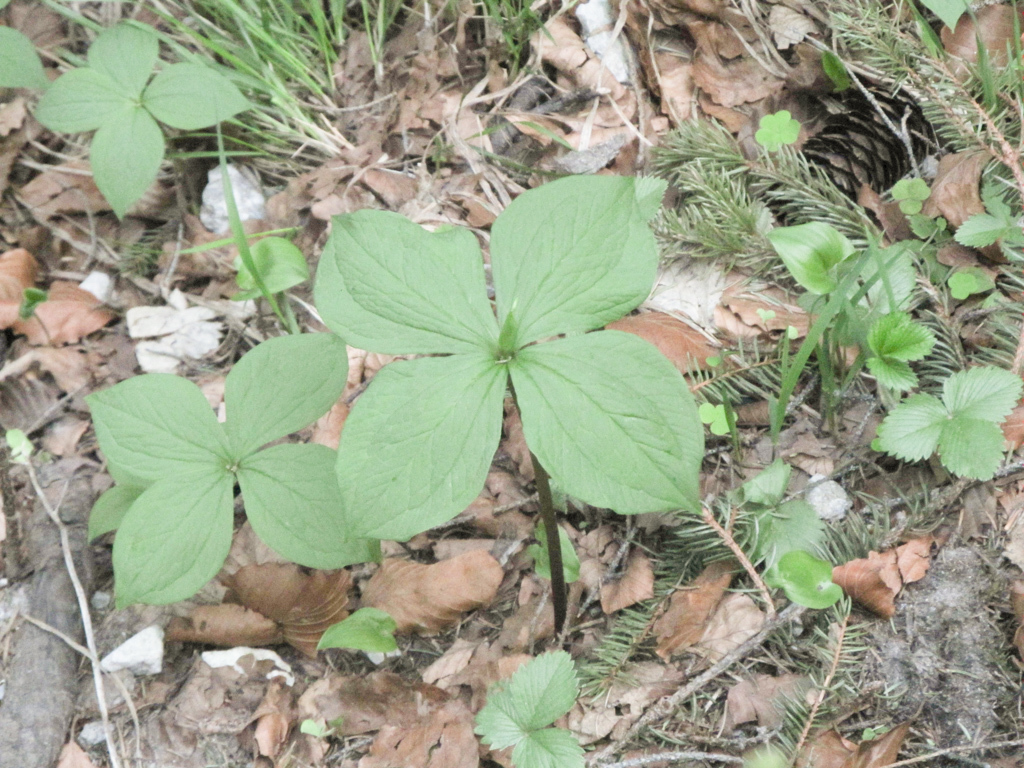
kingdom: Plantae
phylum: Tracheophyta
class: Liliopsida
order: Liliales
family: Melanthiaceae
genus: Paris
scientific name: Paris quadrifolia
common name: Herb-paris
